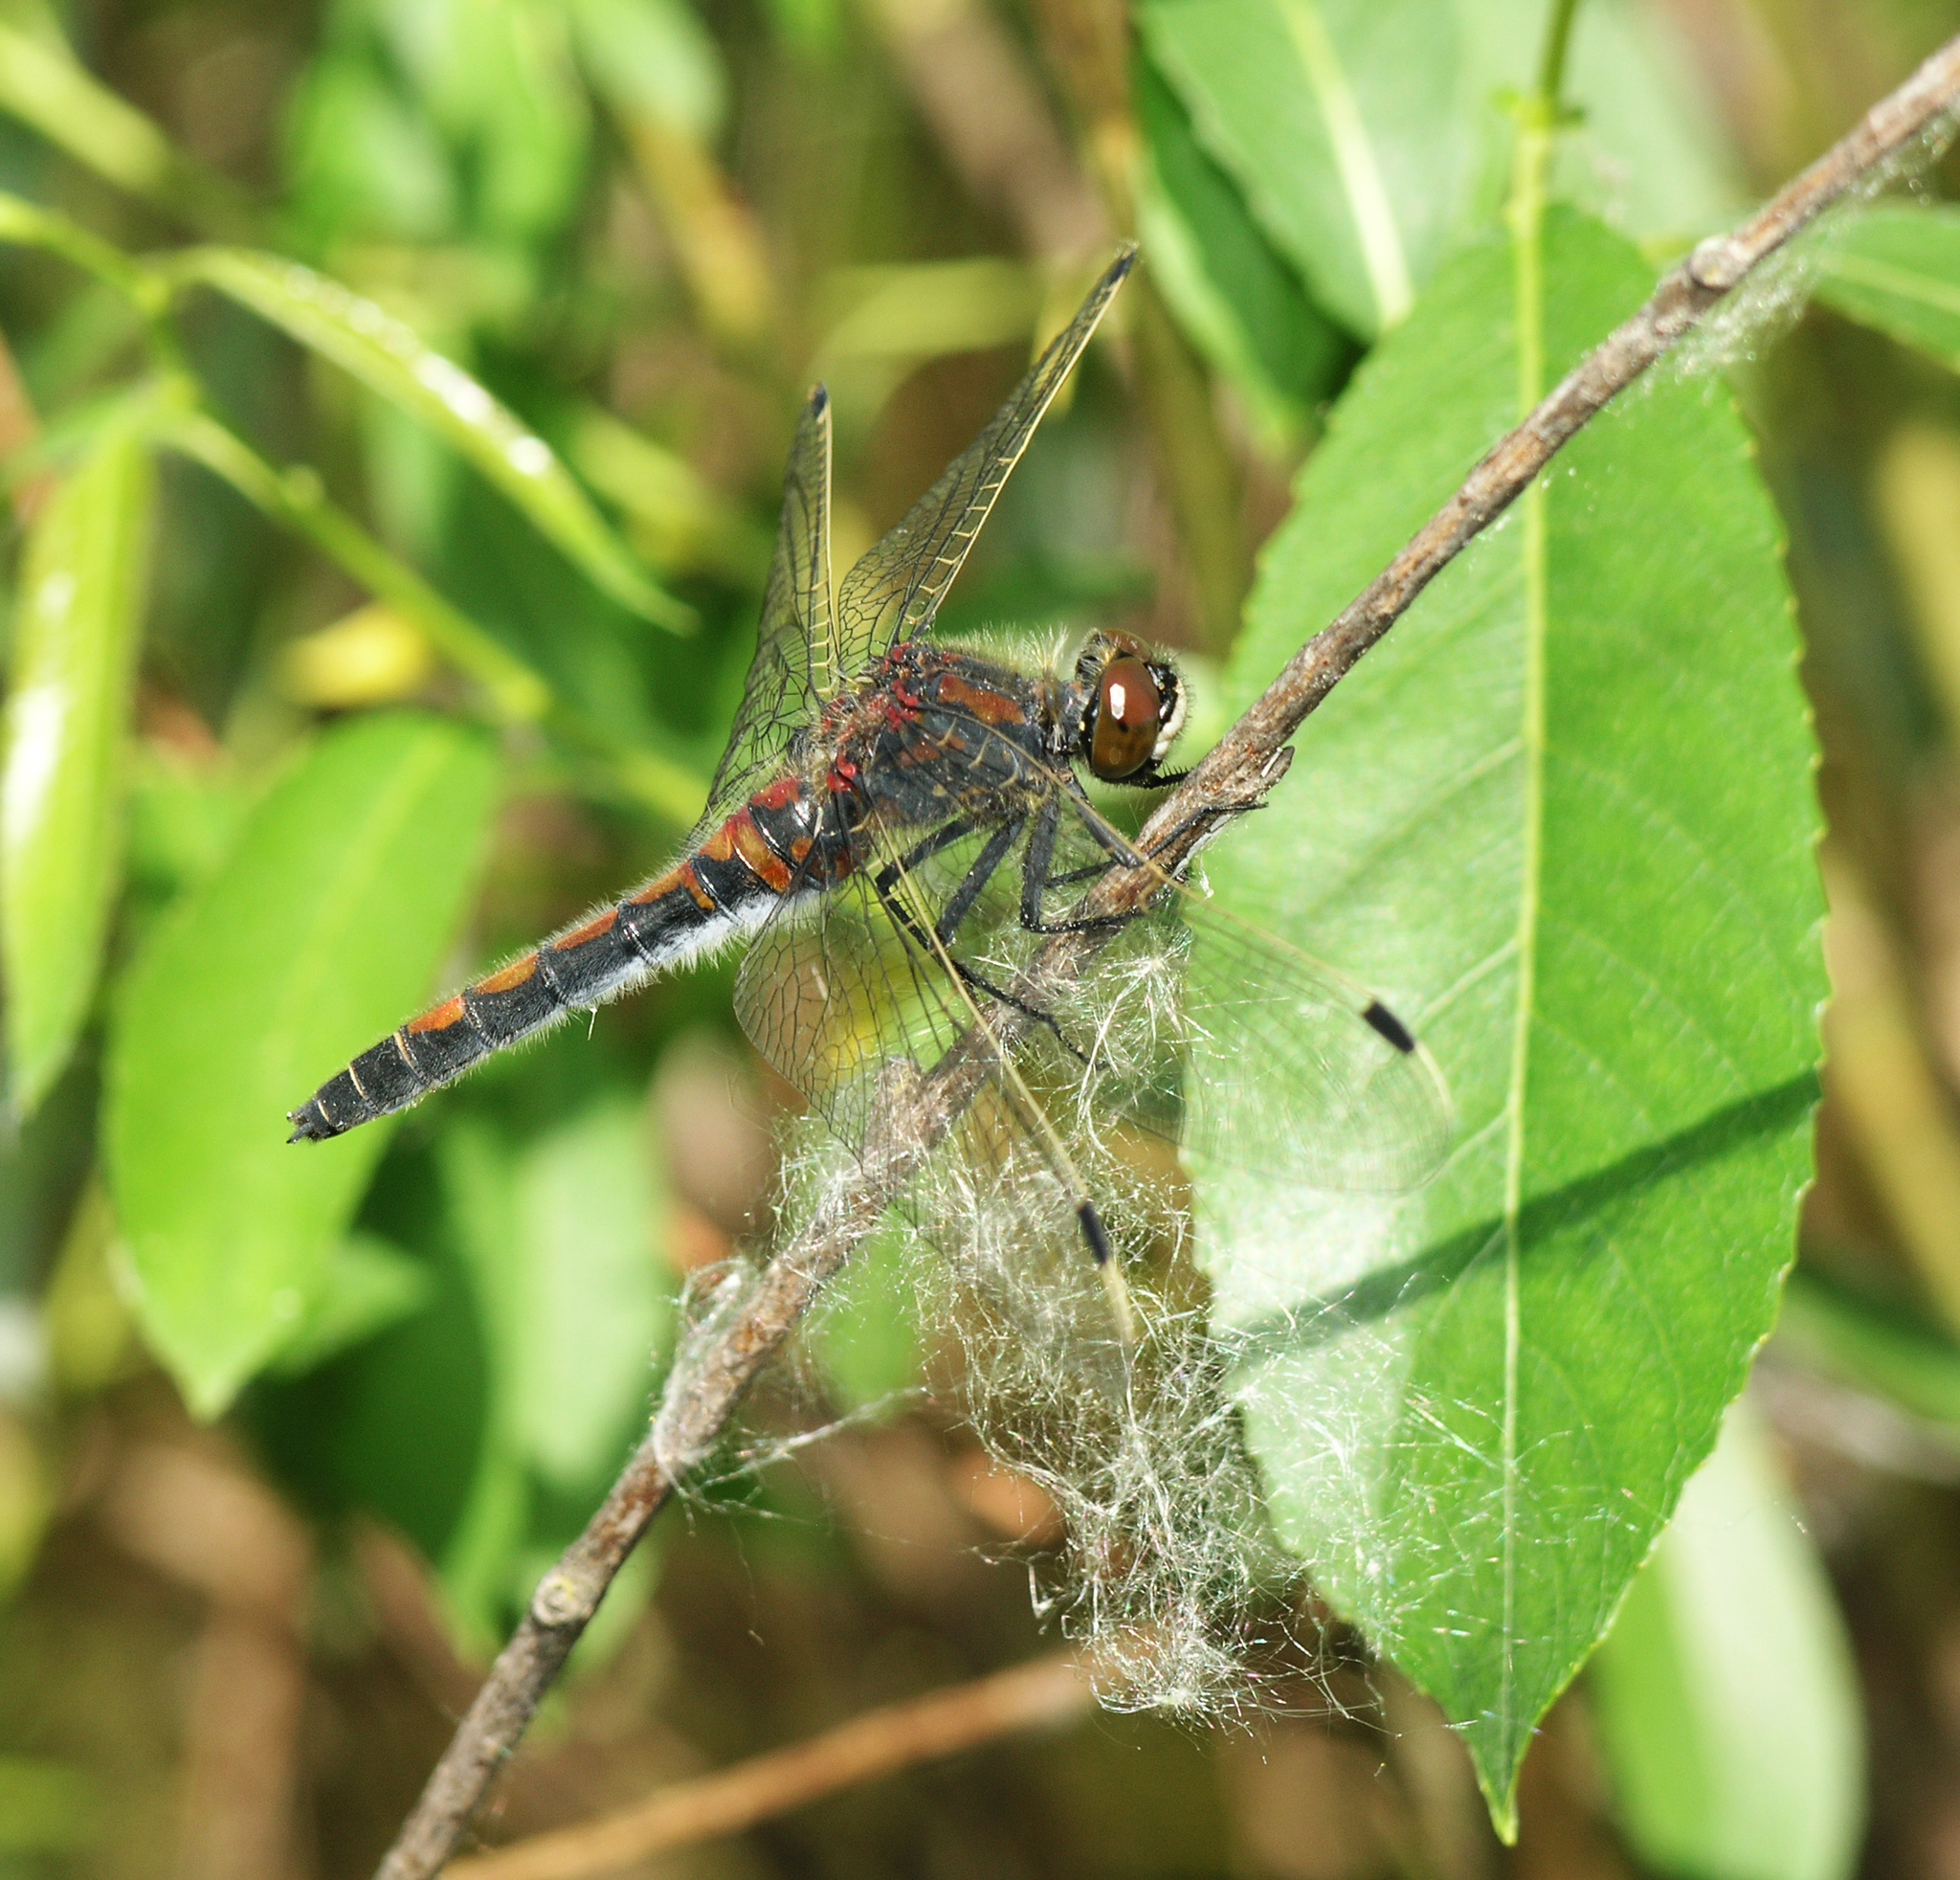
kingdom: Animalia
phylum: Arthropoda
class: Insecta
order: Odonata
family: Libellulidae
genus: Leucorrhinia
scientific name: Leucorrhinia rubicunda
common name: Ruby whiteface
